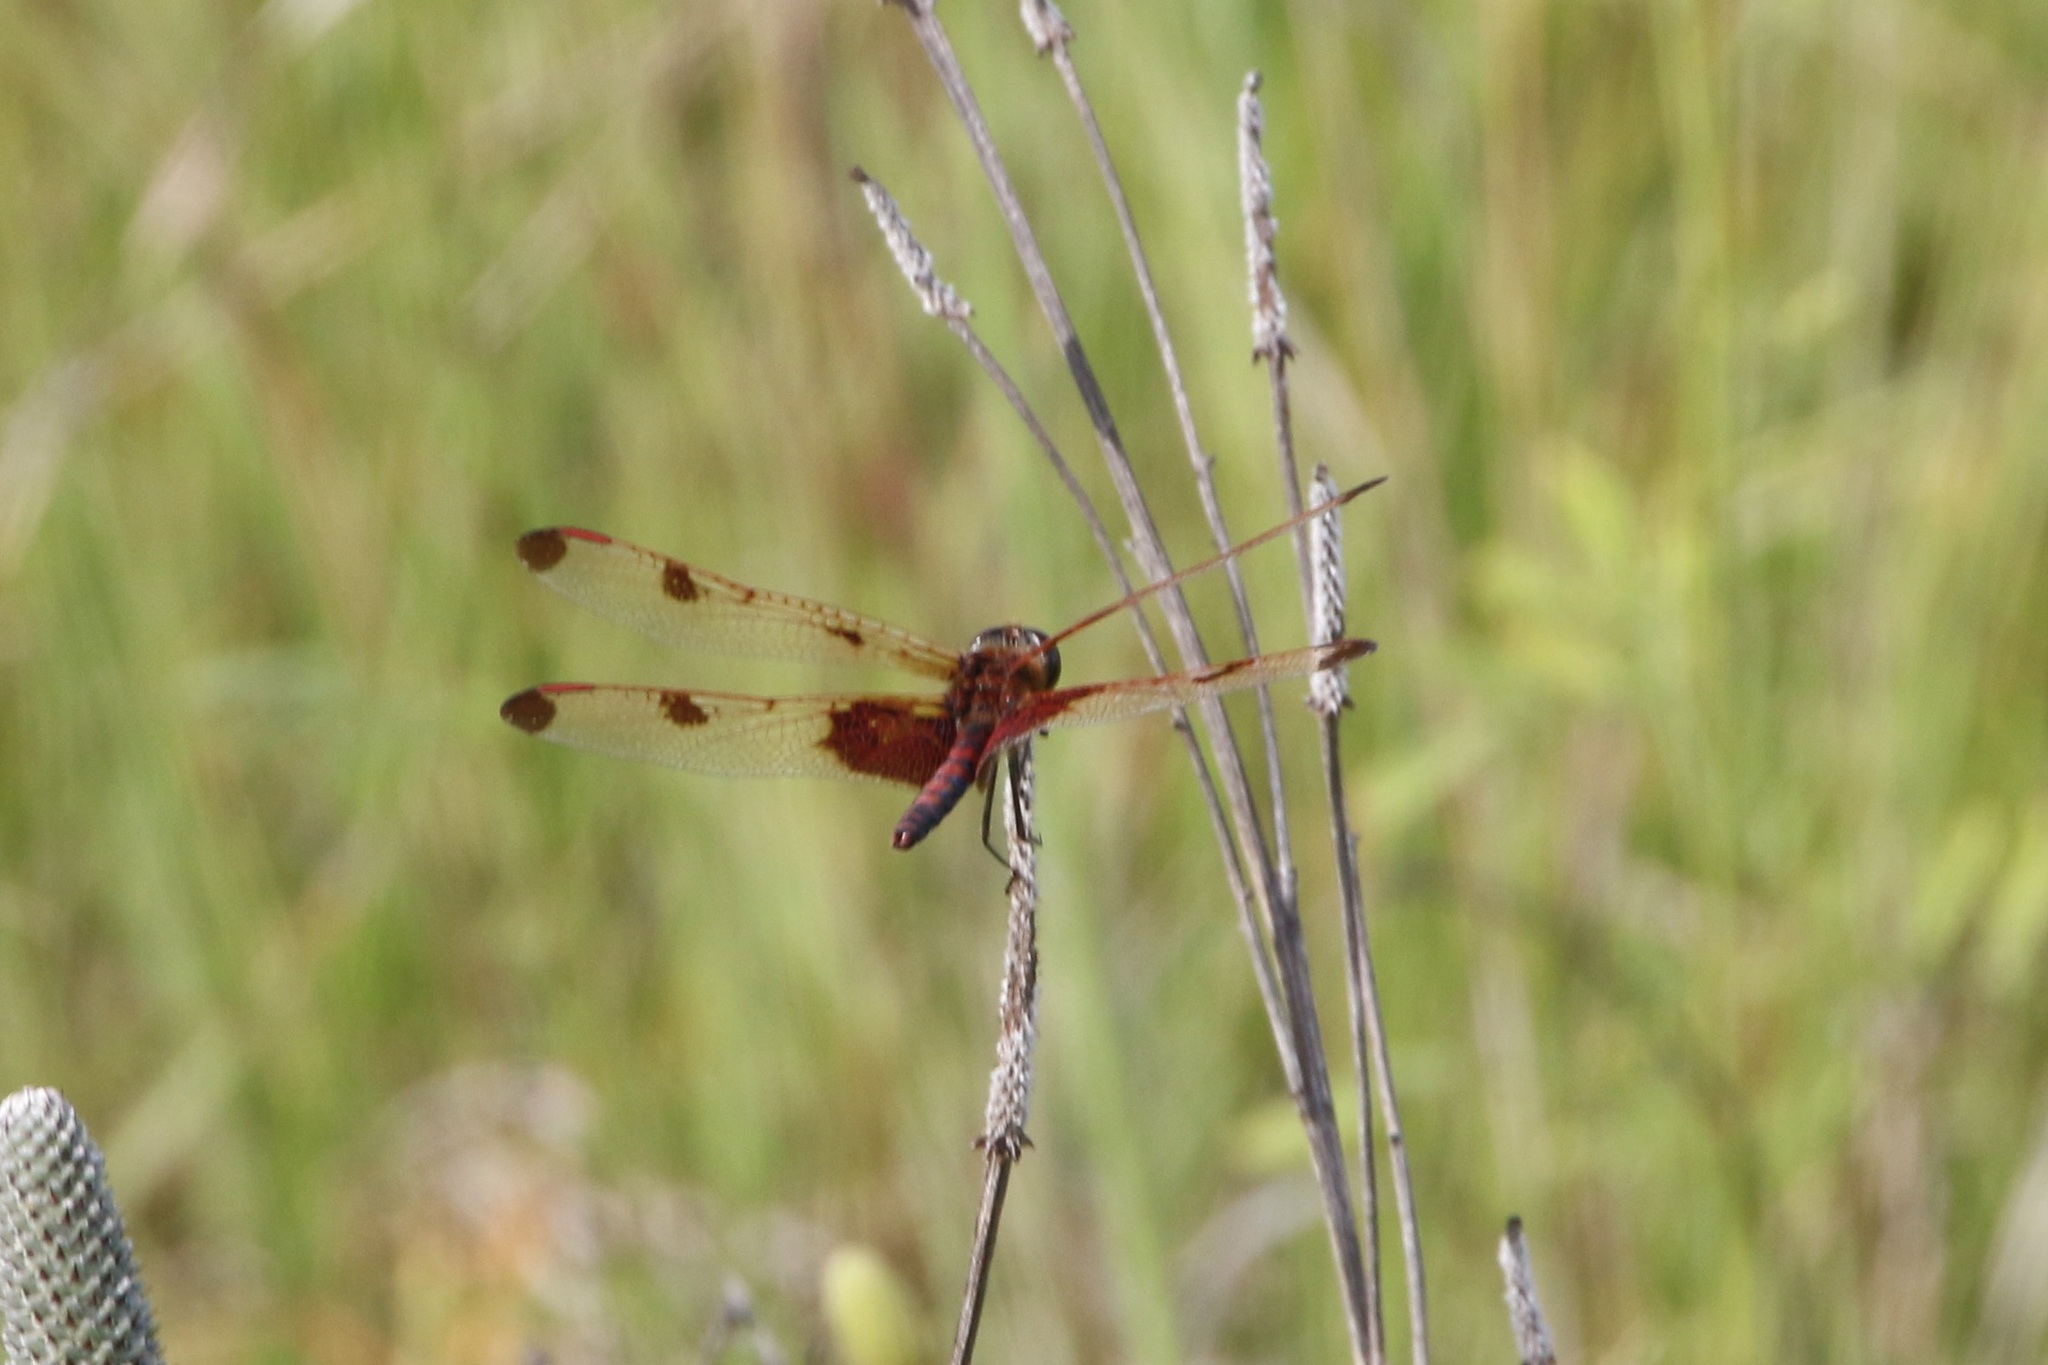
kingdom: Animalia
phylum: Arthropoda
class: Insecta
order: Odonata
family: Libellulidae
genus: Celithemis
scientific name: Celithemis elisa
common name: Calico pennant
